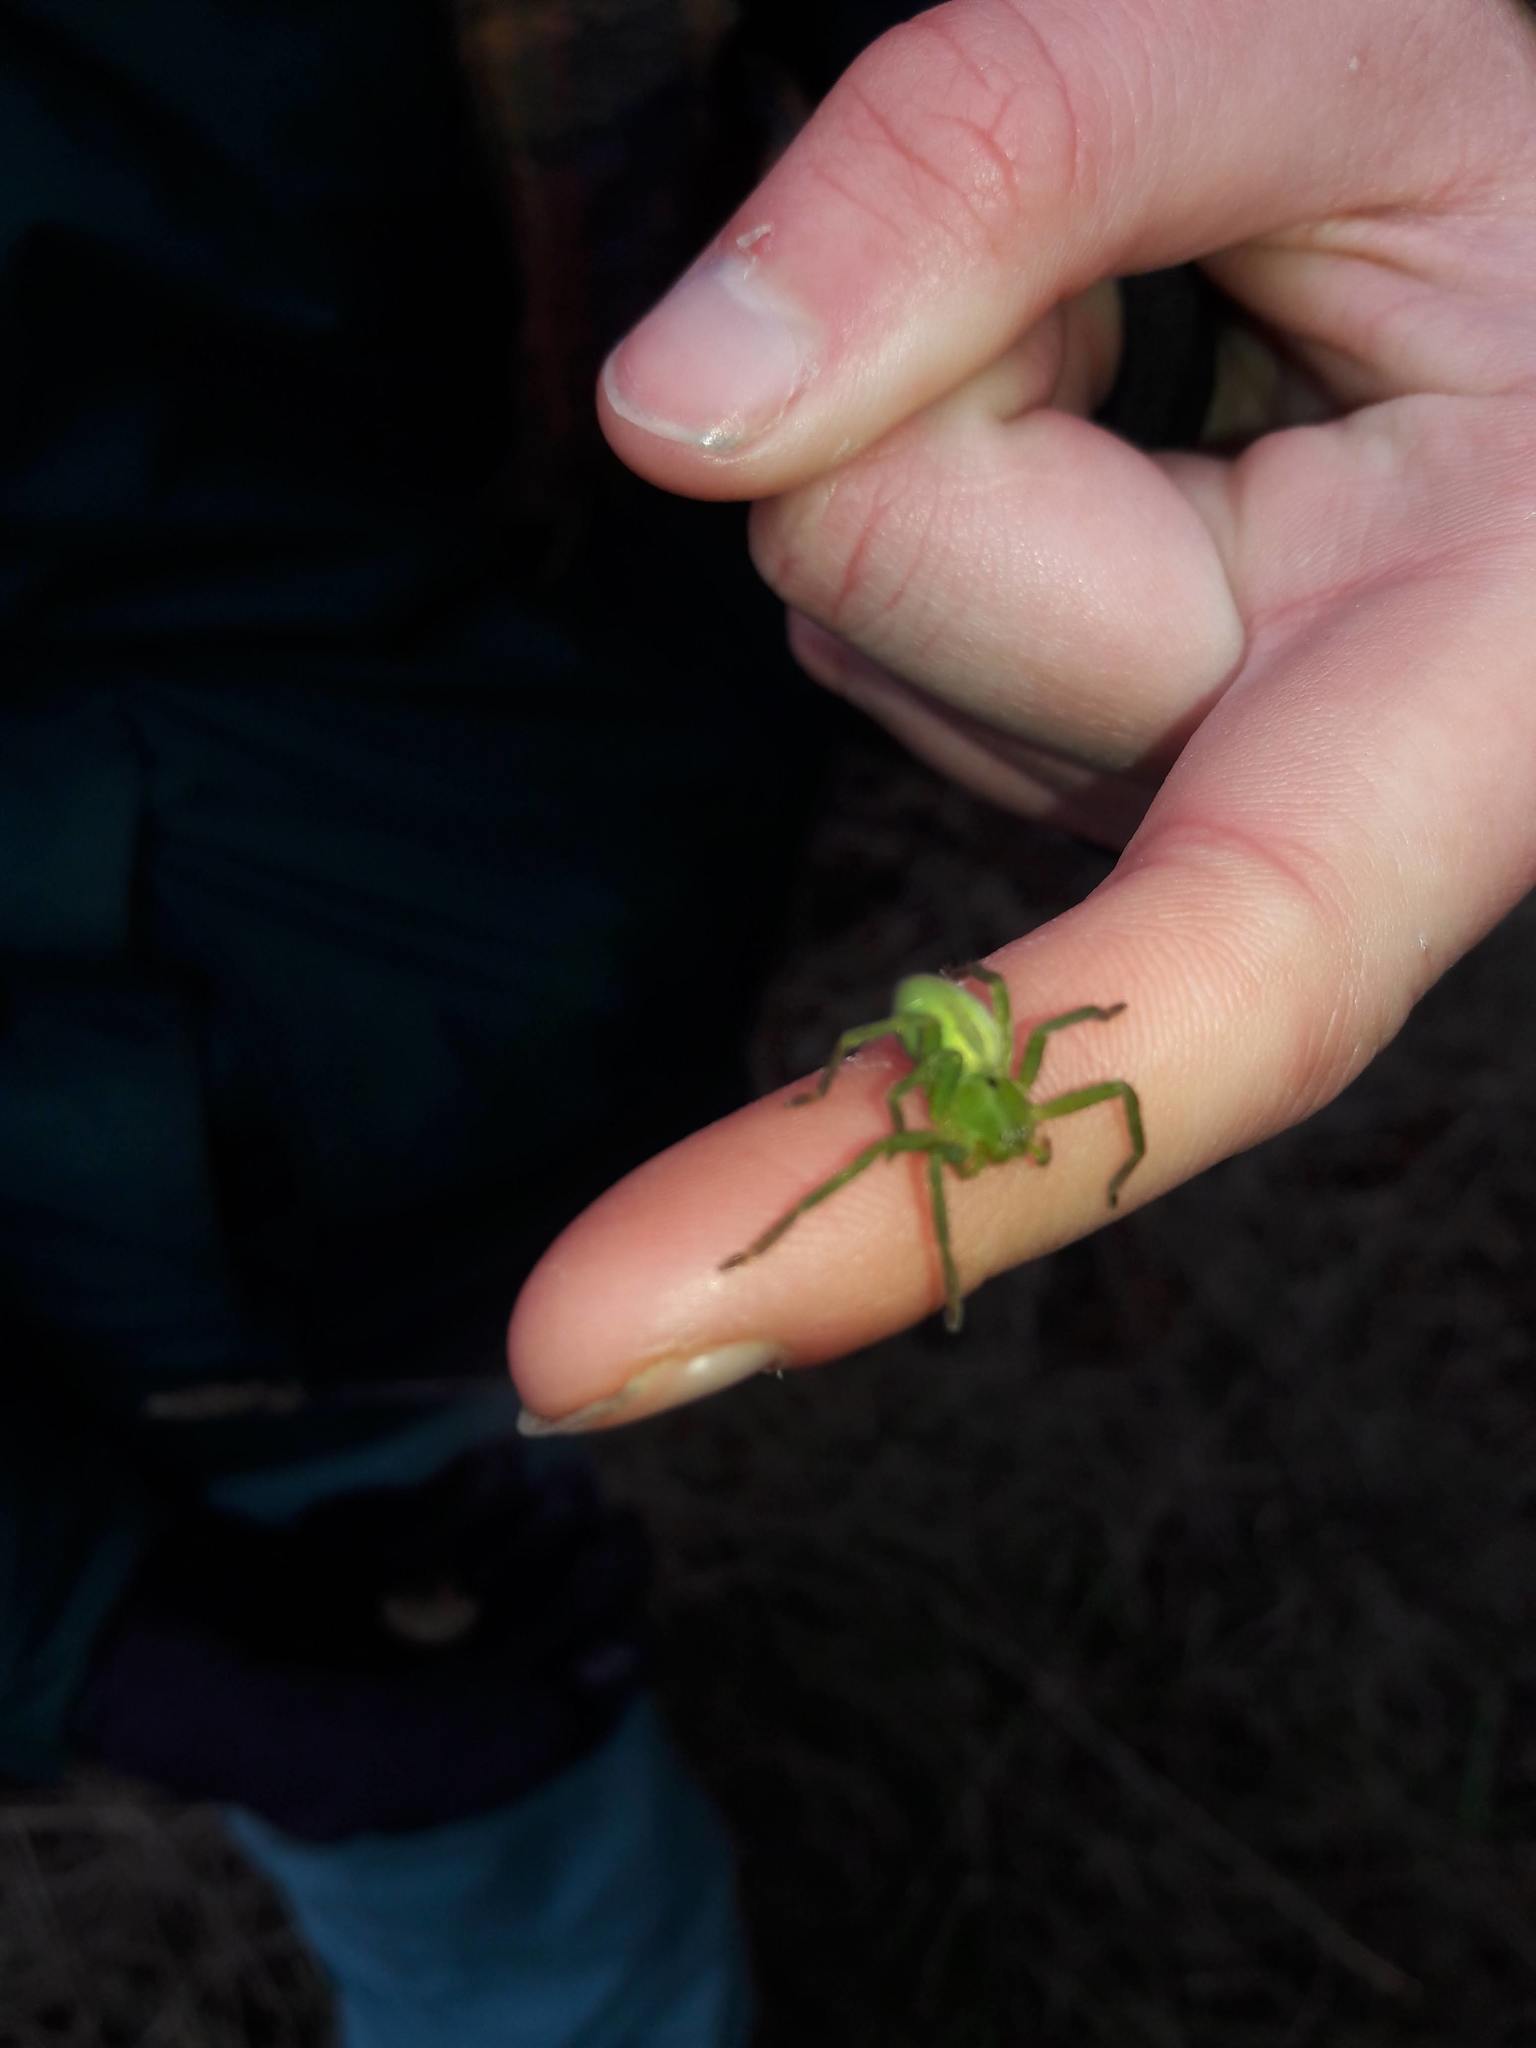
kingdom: Animalia
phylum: Arthropoda
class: Arachnida
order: Araneae
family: Sparassidae
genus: Micrommata
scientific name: Micrommata ligurina
